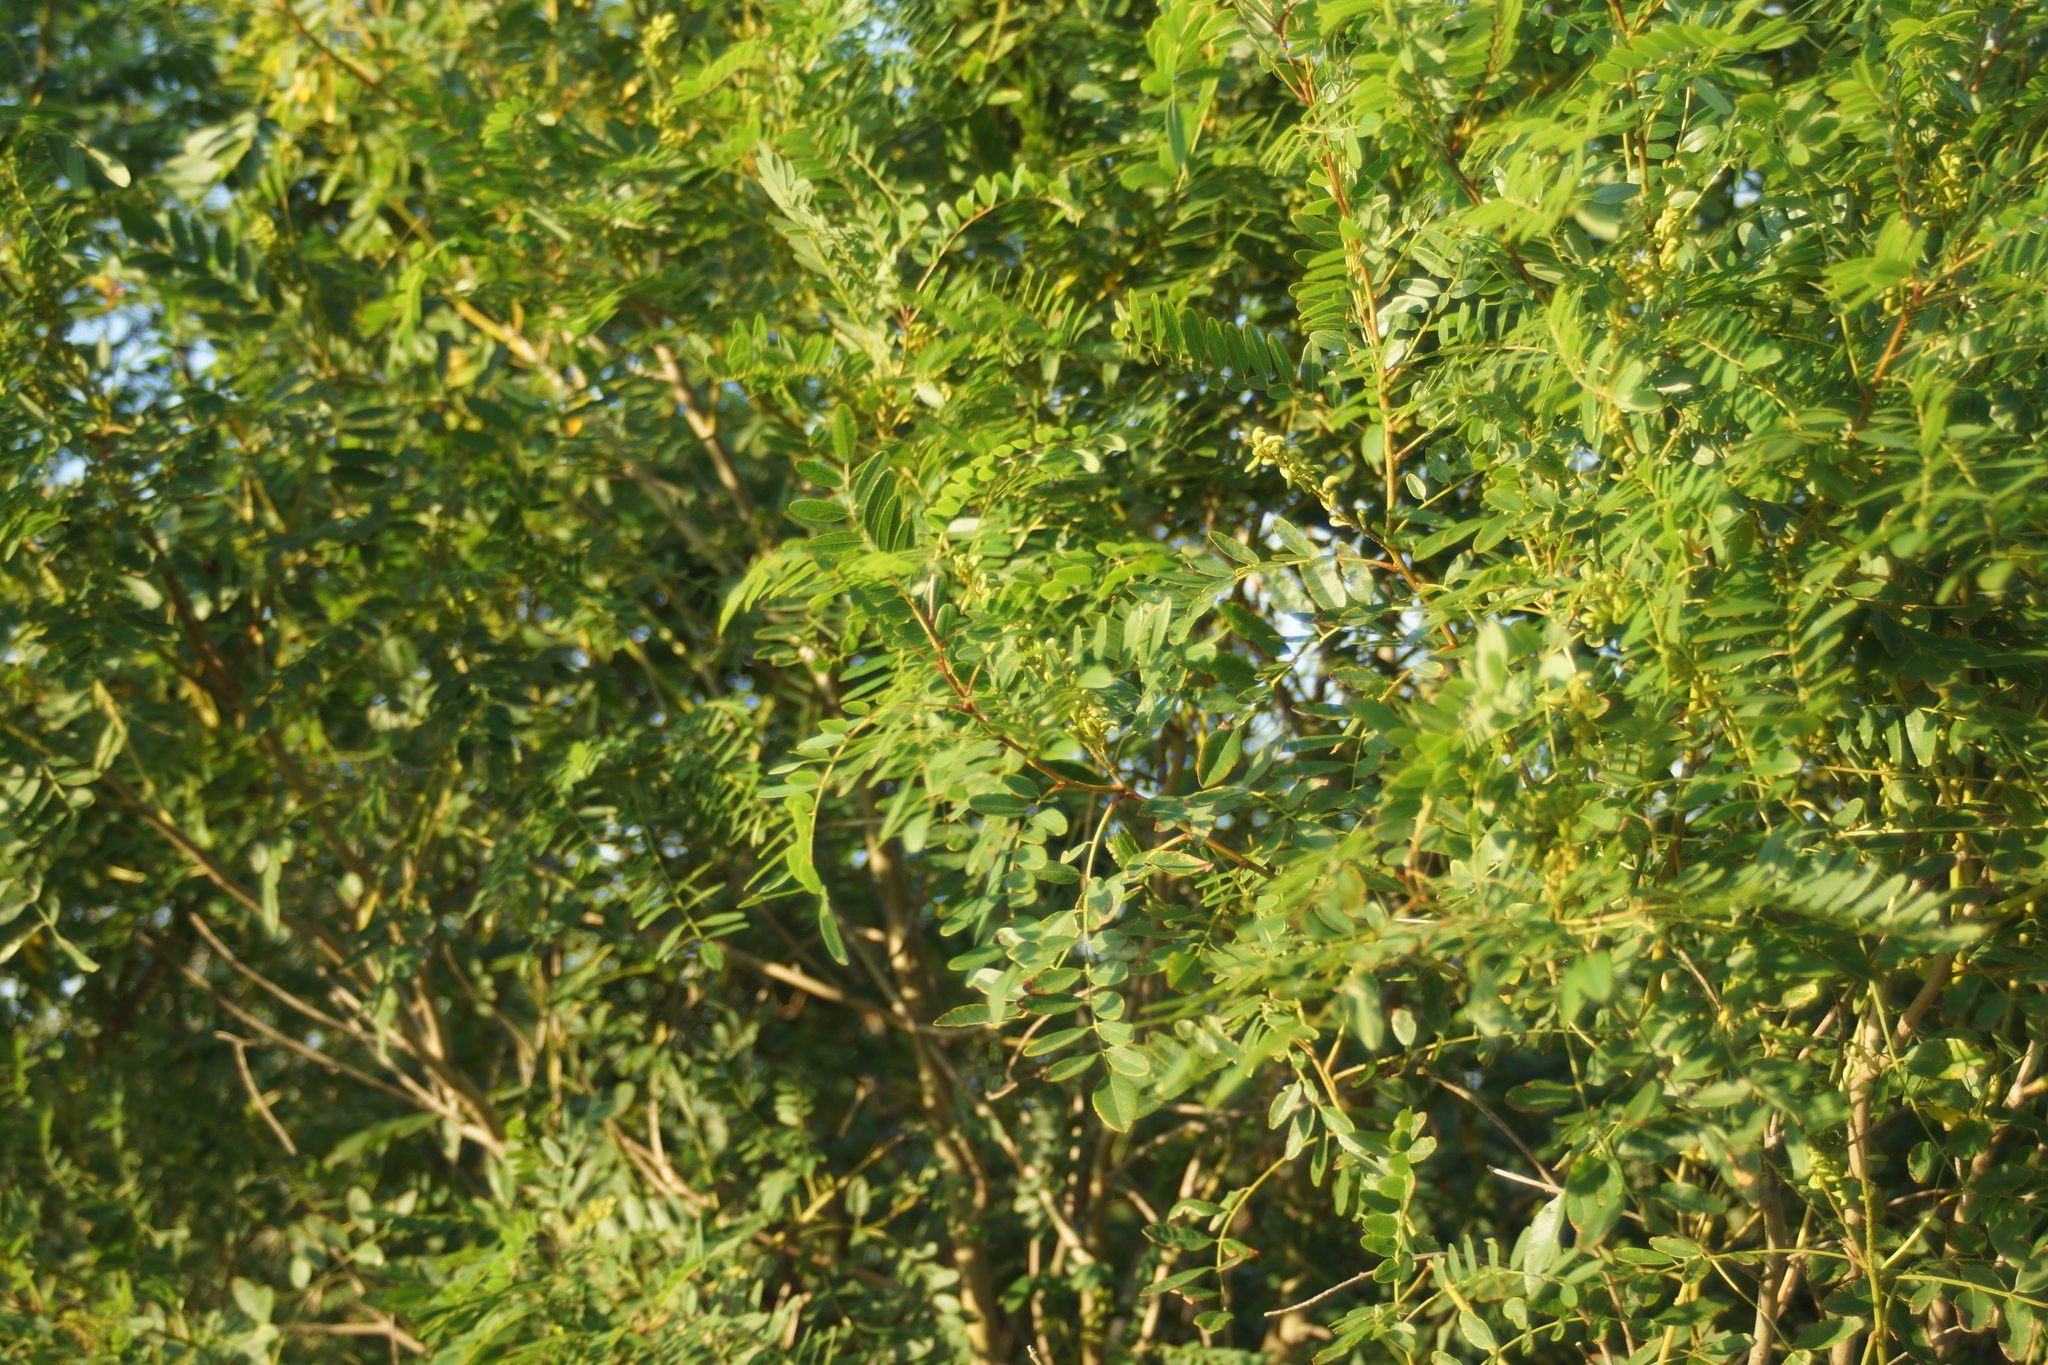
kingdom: Plantae
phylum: Tracheophyta
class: Magnoliopsida
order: Fabales
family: Fabaceae
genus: Amorpha
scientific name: Amorpha fruticosa
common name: False indigo
